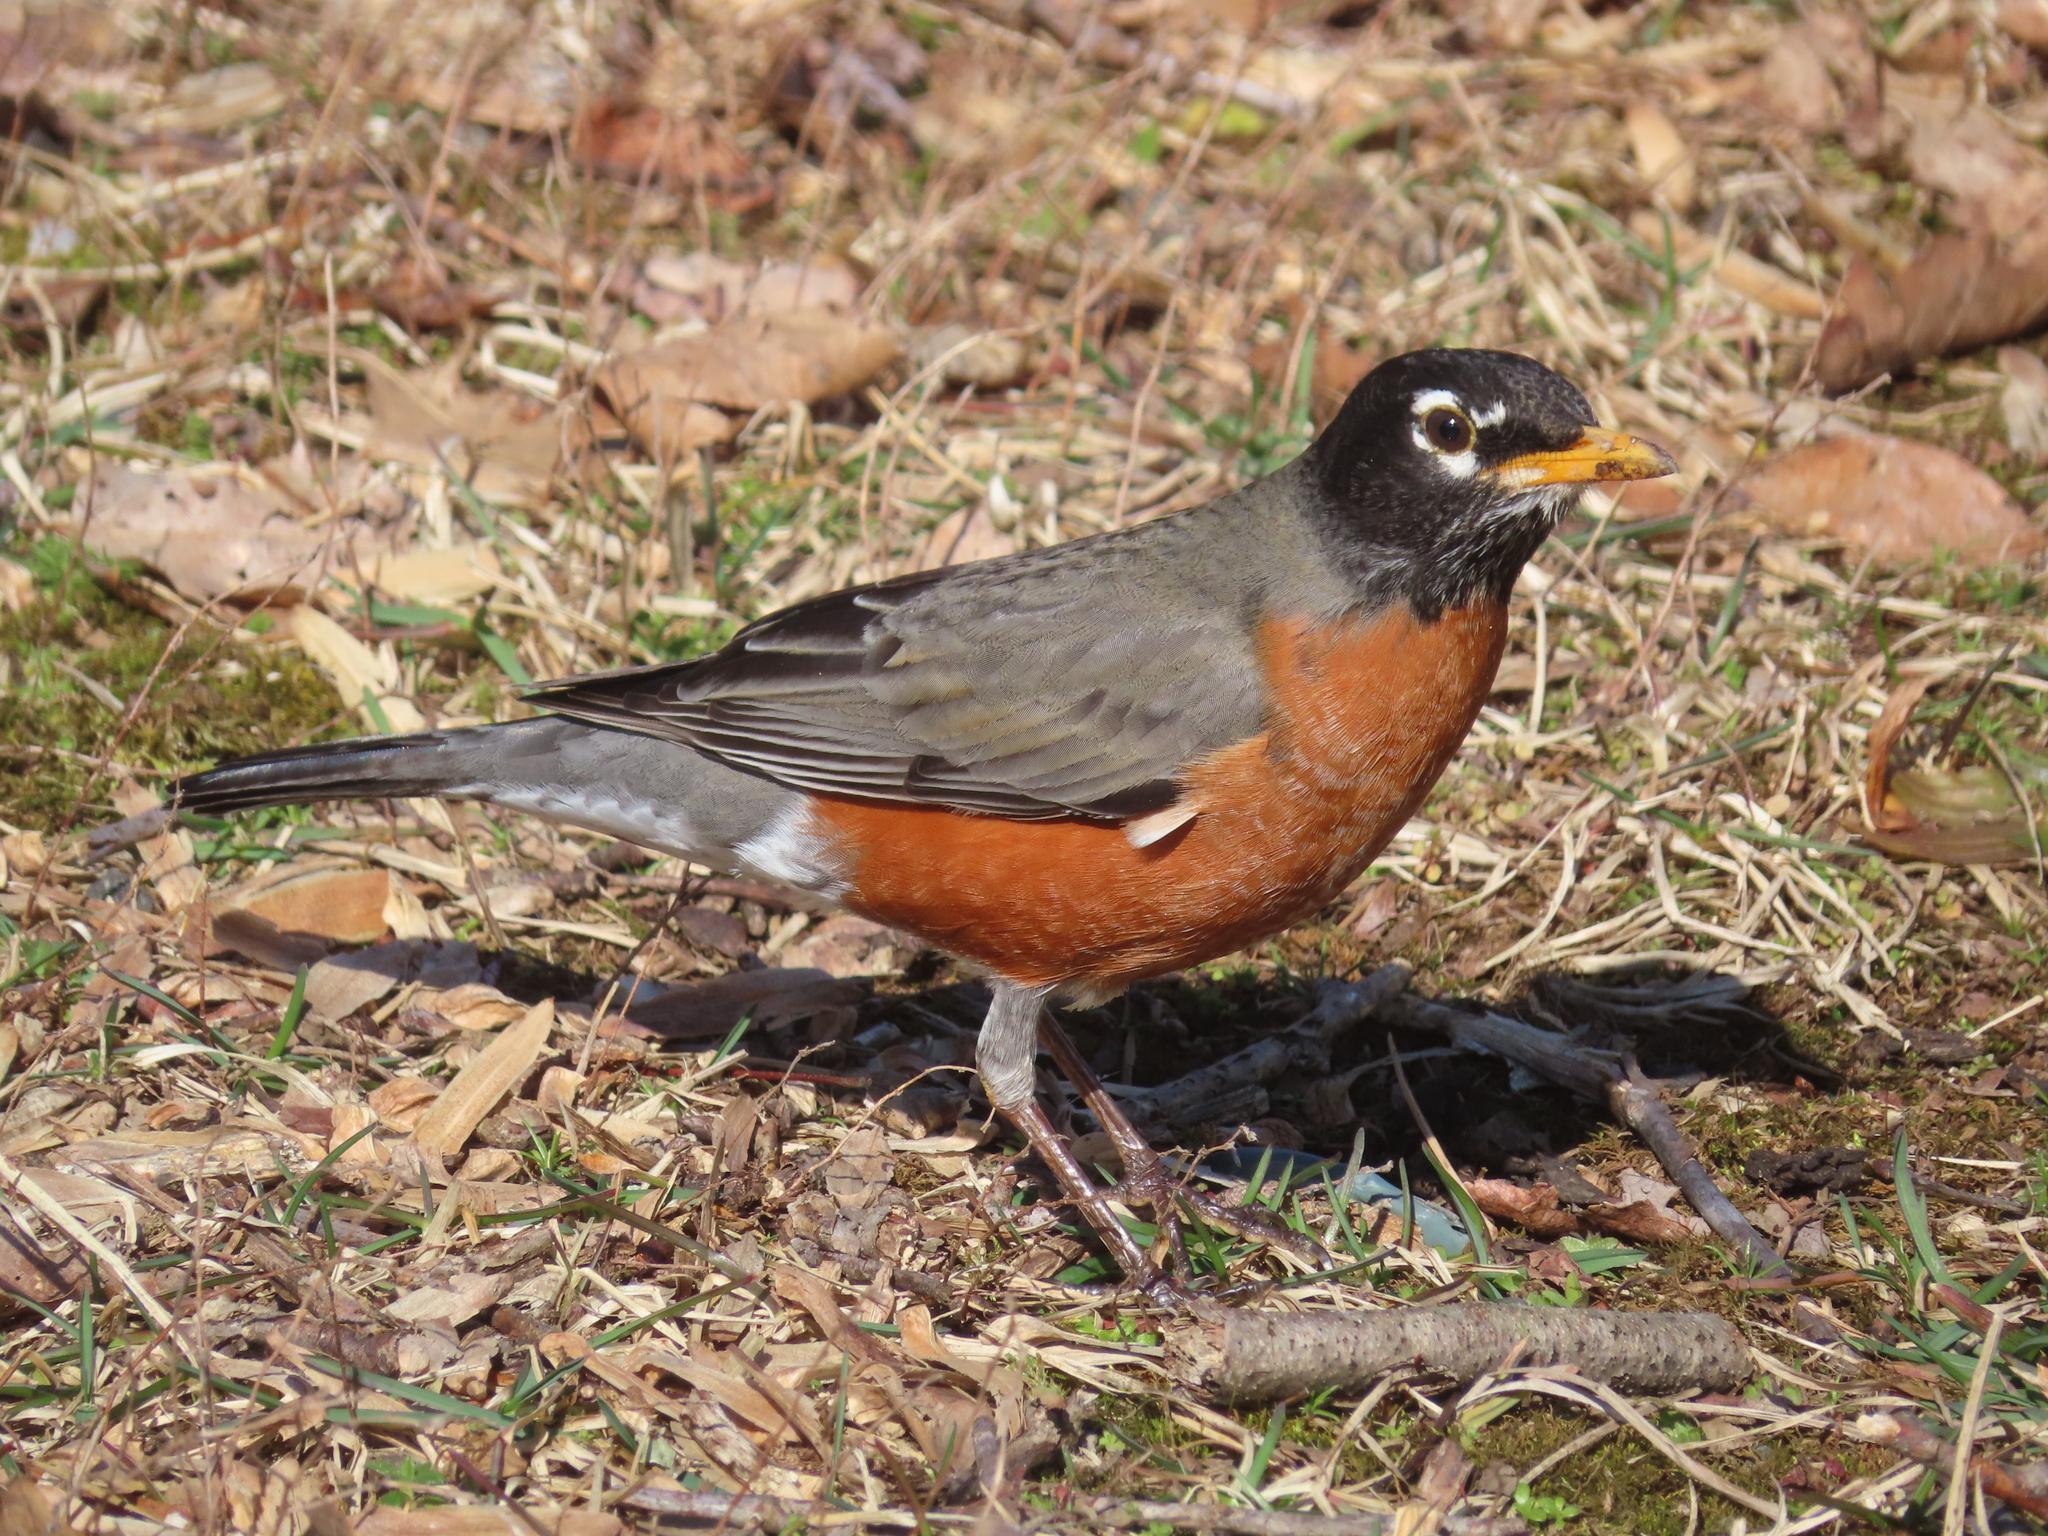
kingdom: Animalia
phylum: Chordata
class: Aves
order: Passeriformes
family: Turdidae
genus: Turdus
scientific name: Turdus migratorius
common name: American robin
